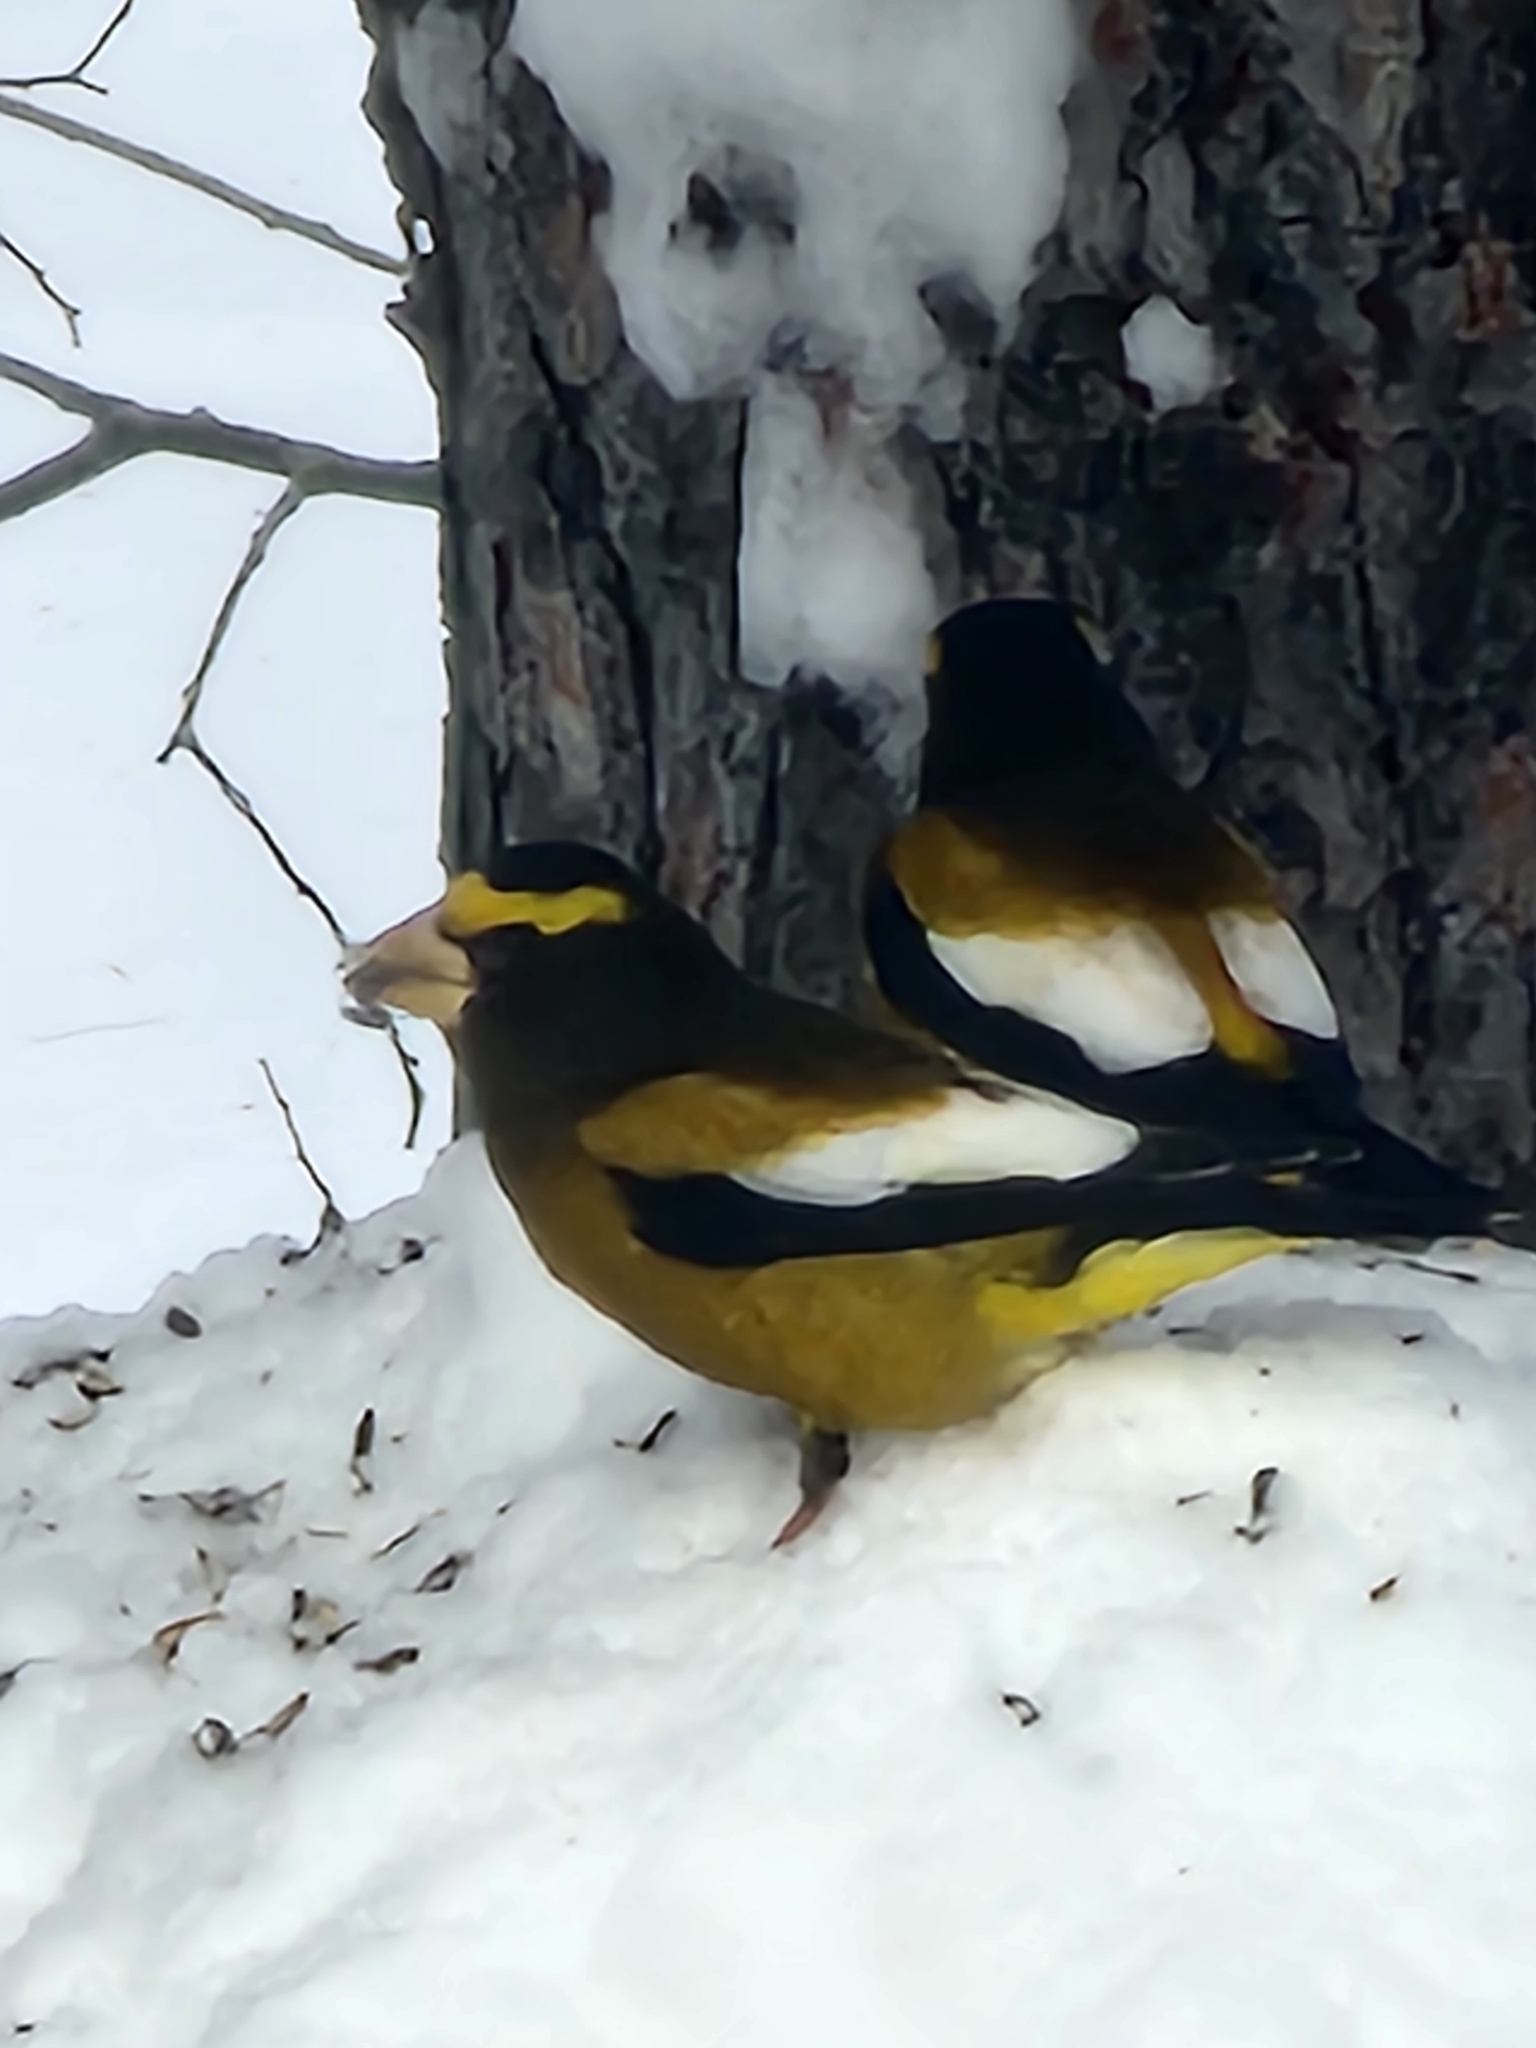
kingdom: Animalia
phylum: Chordata
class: Aves
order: Passeriformes
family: Fringillidae
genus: Hesperiphona
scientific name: Hesperiphona vespertina
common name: Evening grosbeak
